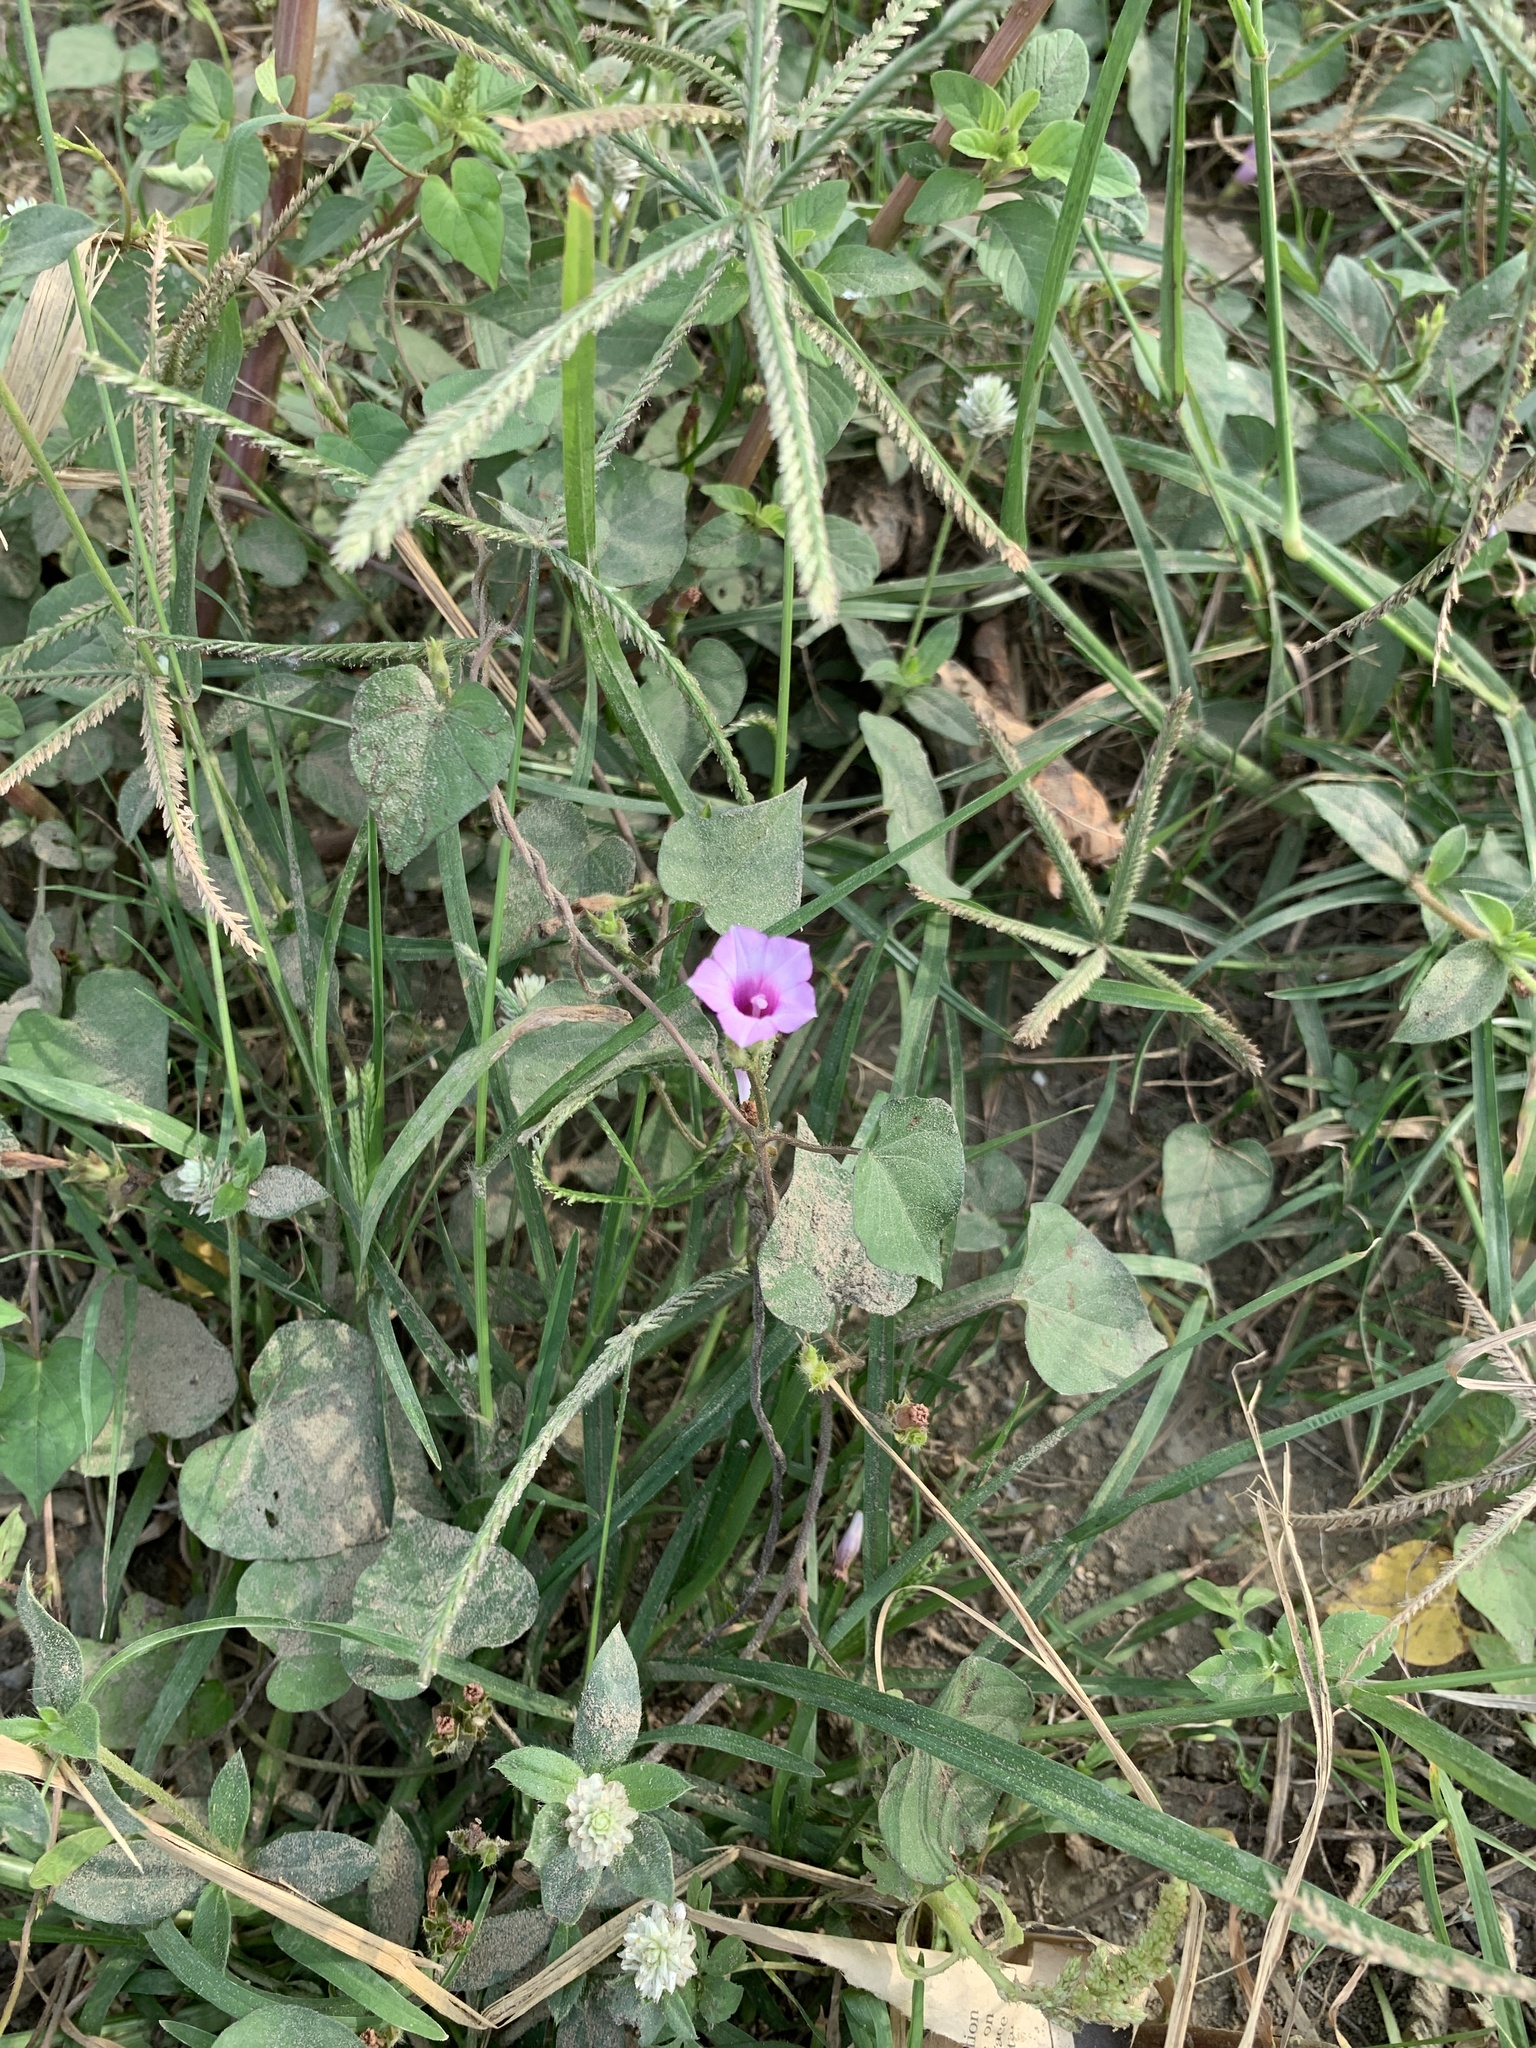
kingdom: Plantae
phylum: Tracheophyta
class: Magnoliopsida
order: Solanales
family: Convolvulaceae
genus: Ipomoea
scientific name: Ipomoea triloba
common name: Little-bell
